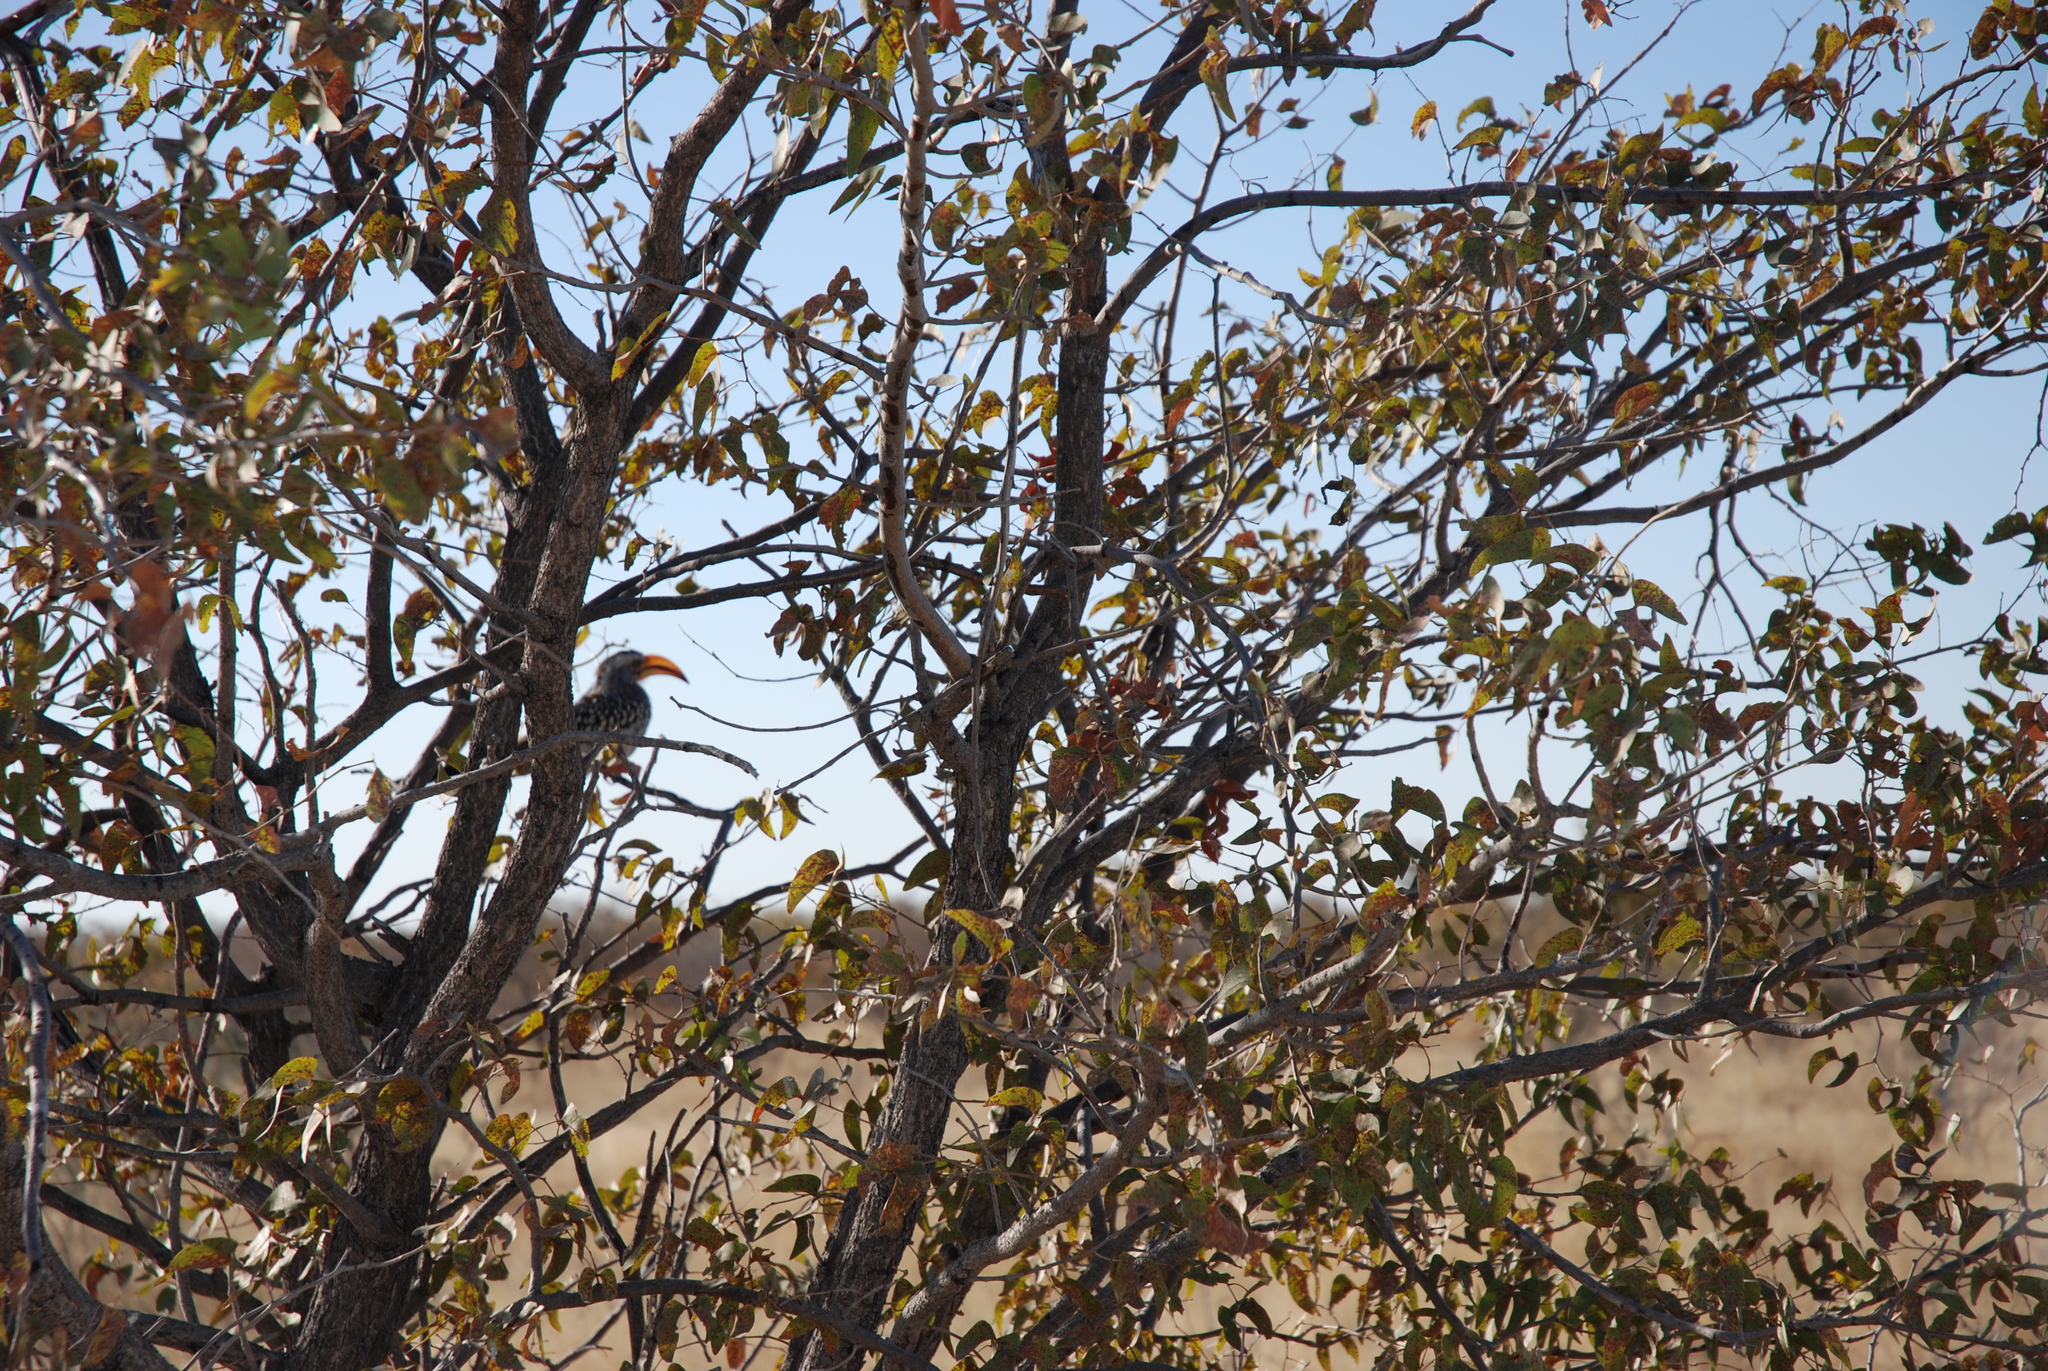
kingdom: Animalia
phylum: Chordata
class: Aves
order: Bucerotiformes
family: Bucerotidae
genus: Tockus
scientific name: Tockus leucomelas
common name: Southern yellow-billed hornbill
